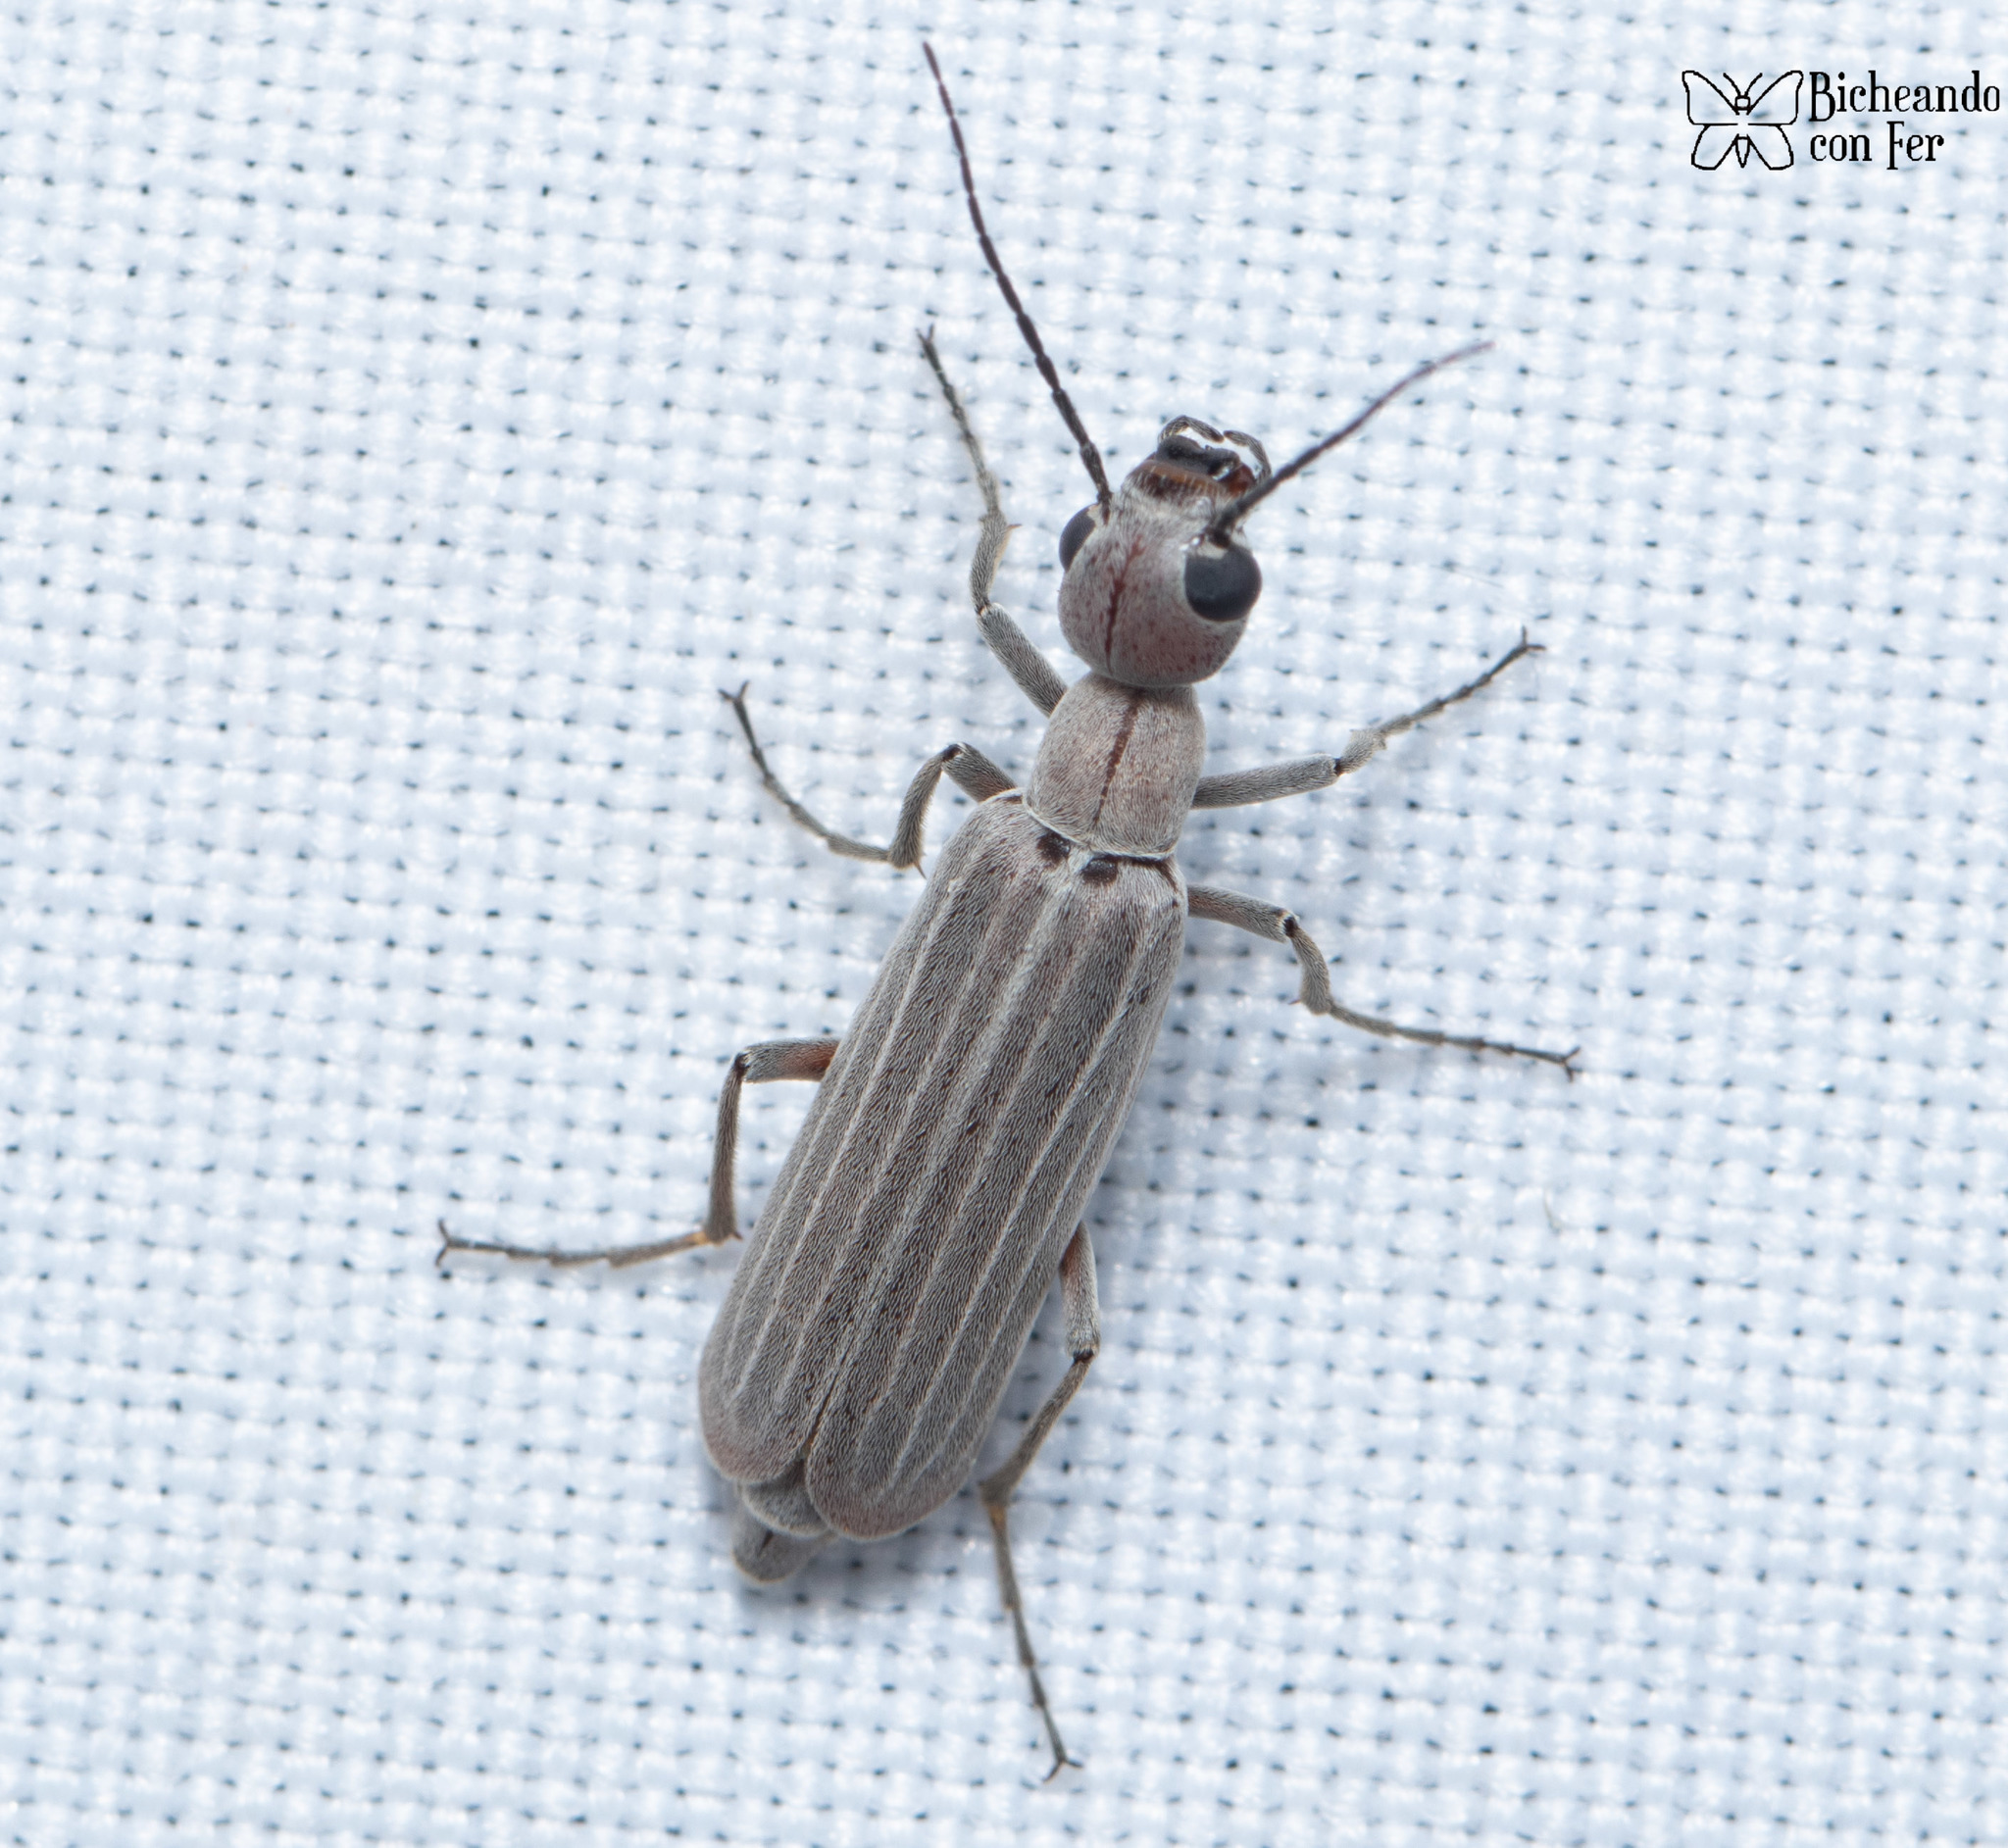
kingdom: Animalia
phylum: Arthropoda
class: Insecta
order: Coleoptera
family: Meloidae
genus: Epicauta
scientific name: Epicauta tenuilineata
